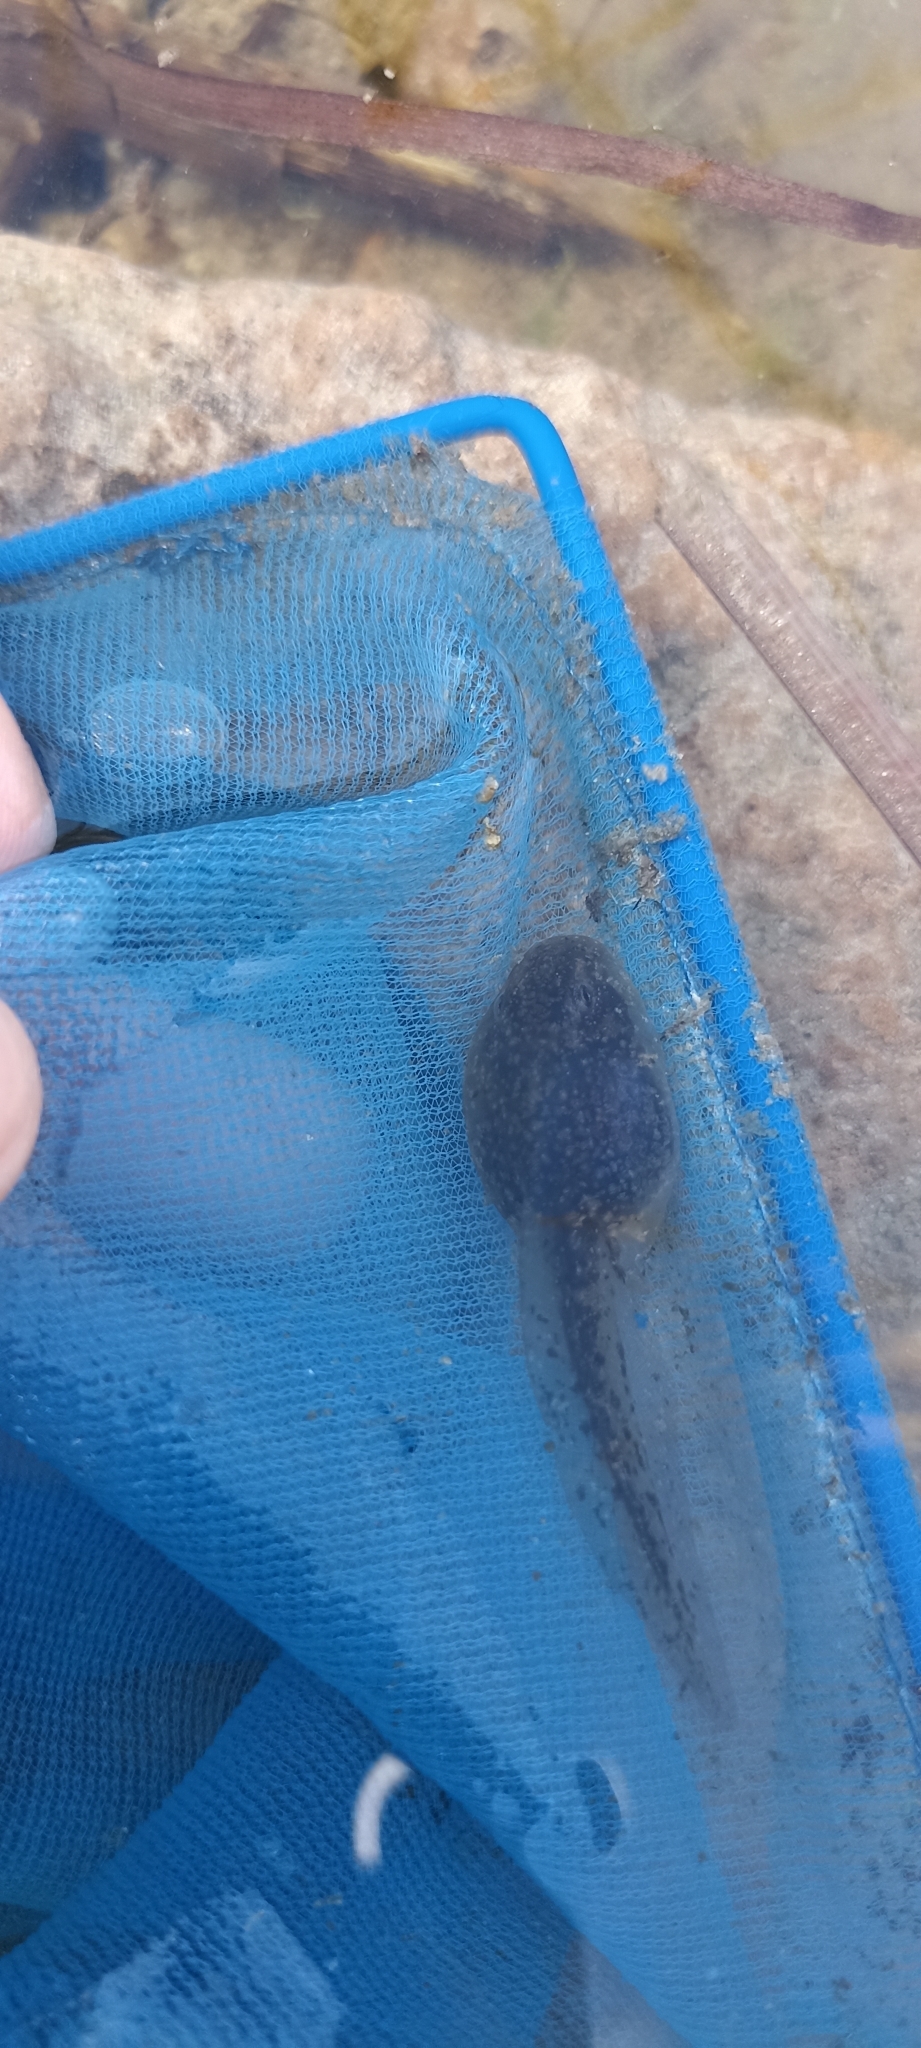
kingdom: Animalia
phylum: Chordata
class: Amphibia
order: Anura
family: Pelodytidae
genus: Pelodytes
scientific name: Pelodytes punctatus
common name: Parsley frog
